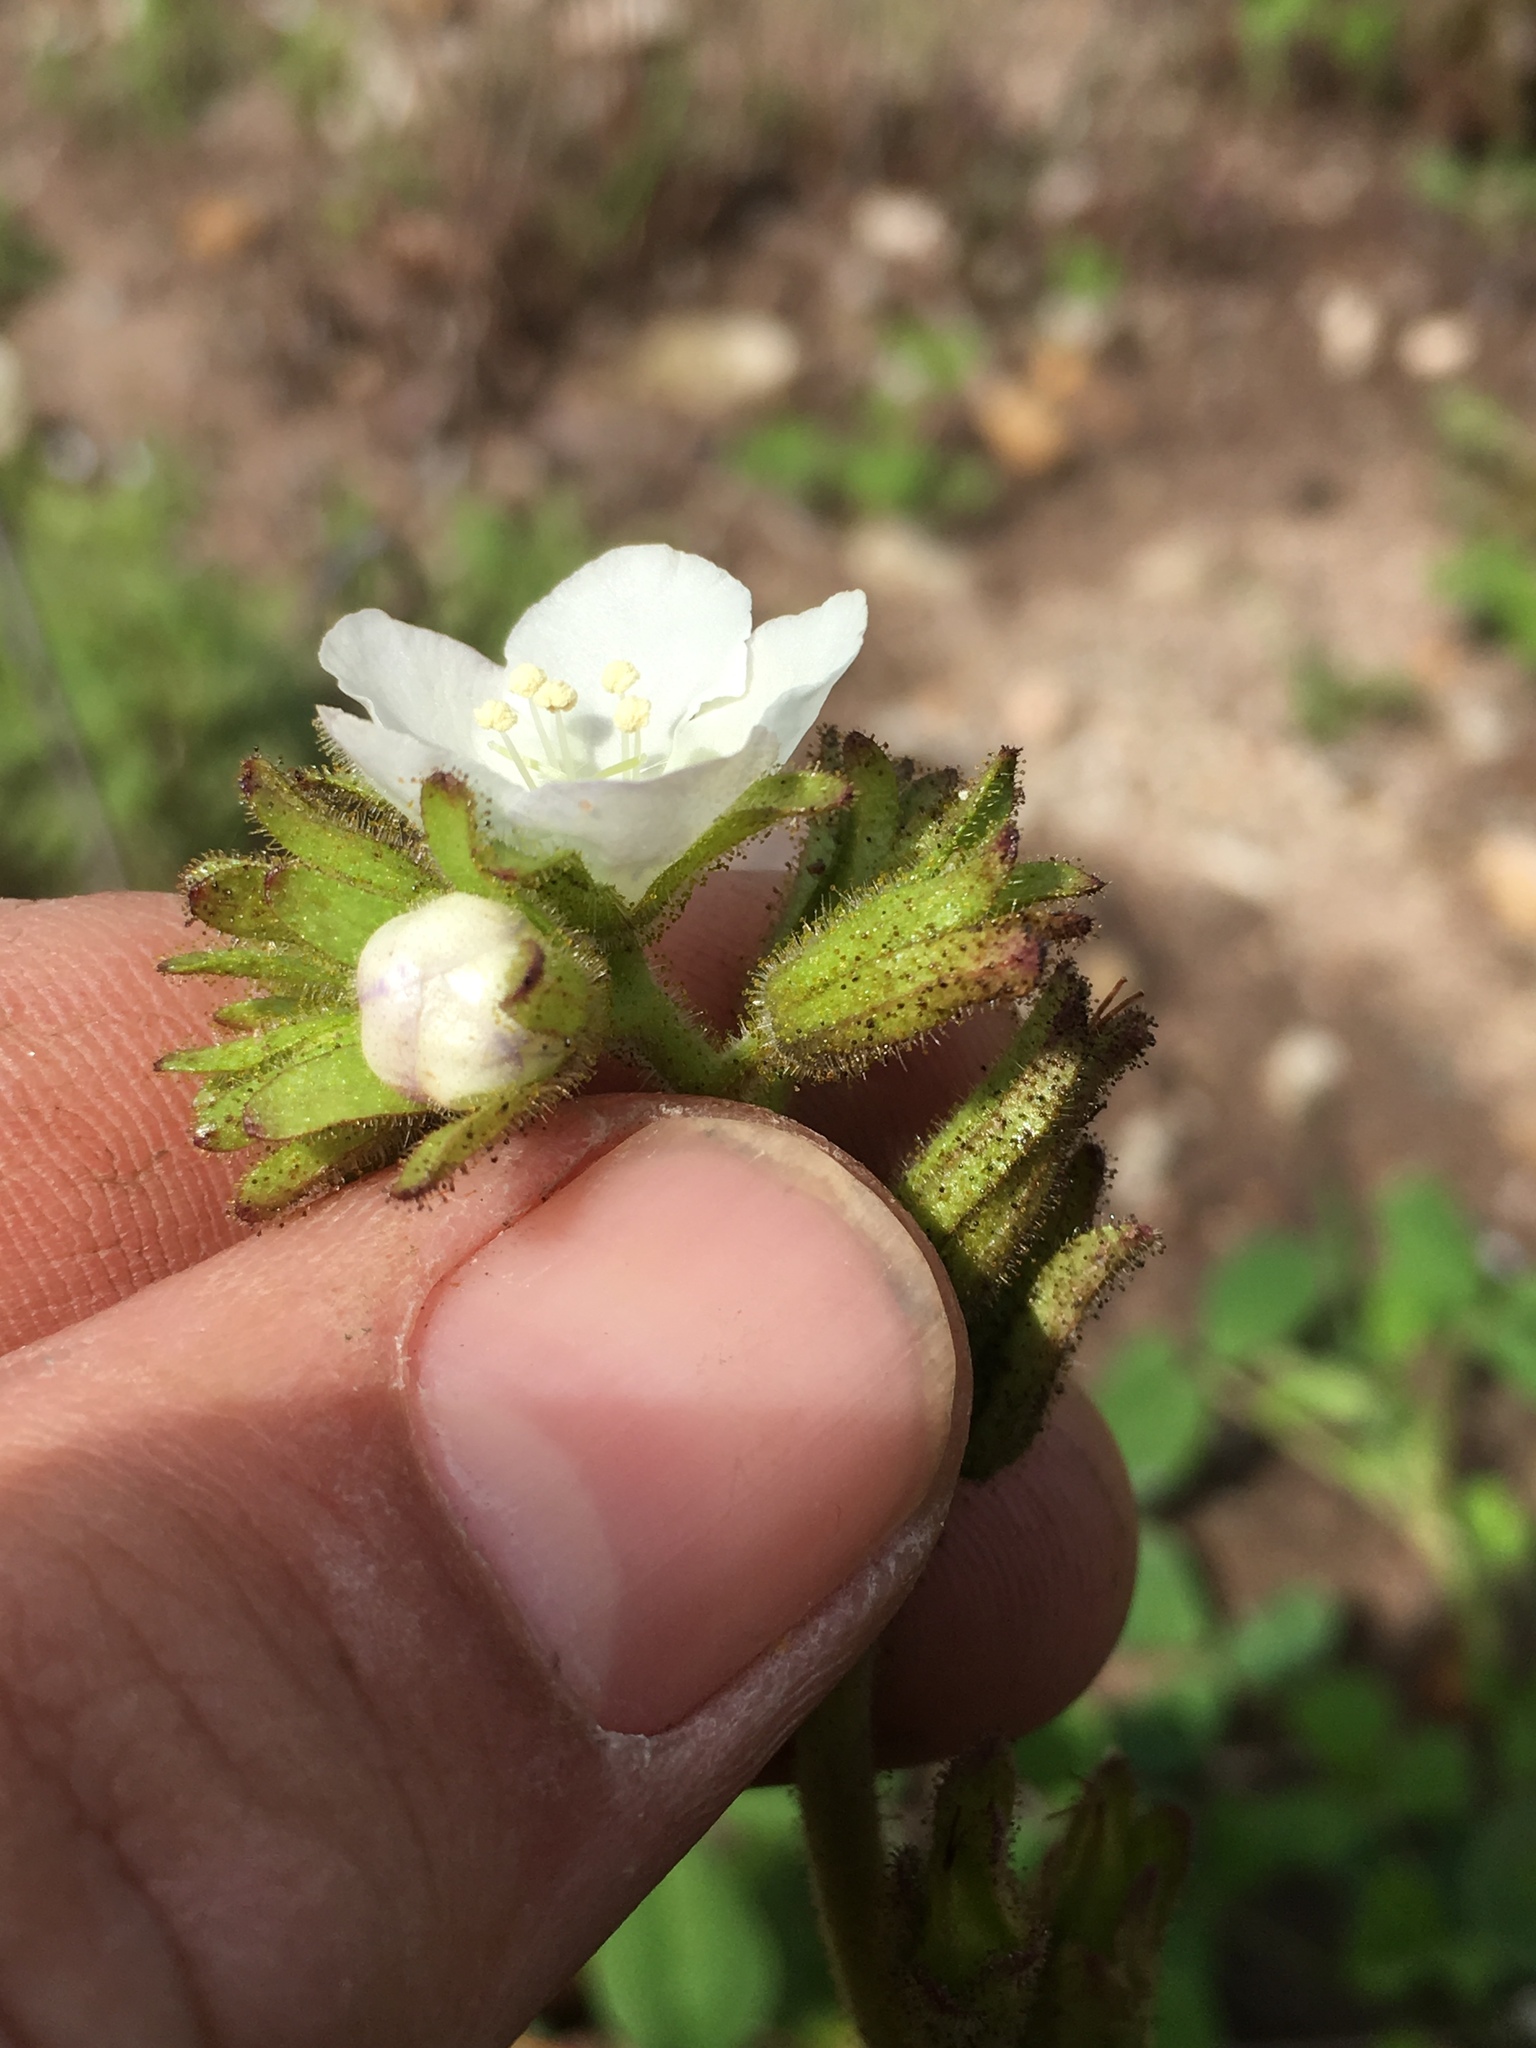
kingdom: Plantae
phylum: Tracheophyta
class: Magnoliopsida
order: Boraginales
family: Hydrophyllaceae
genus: Phacelia
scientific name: Phacelia viscida
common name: Sticky phacelia
